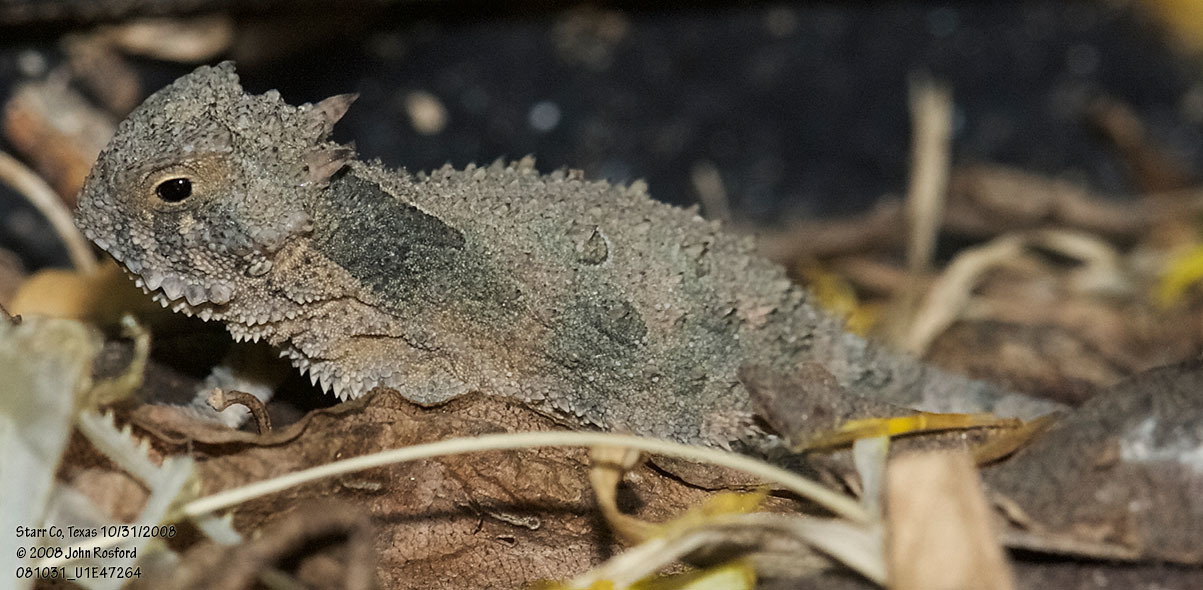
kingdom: Animalia
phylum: Chordata
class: Squamata
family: Phrynosomatidae
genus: Phrynosoma
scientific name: Phrynosoma cornutum
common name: Texas horned lizard
